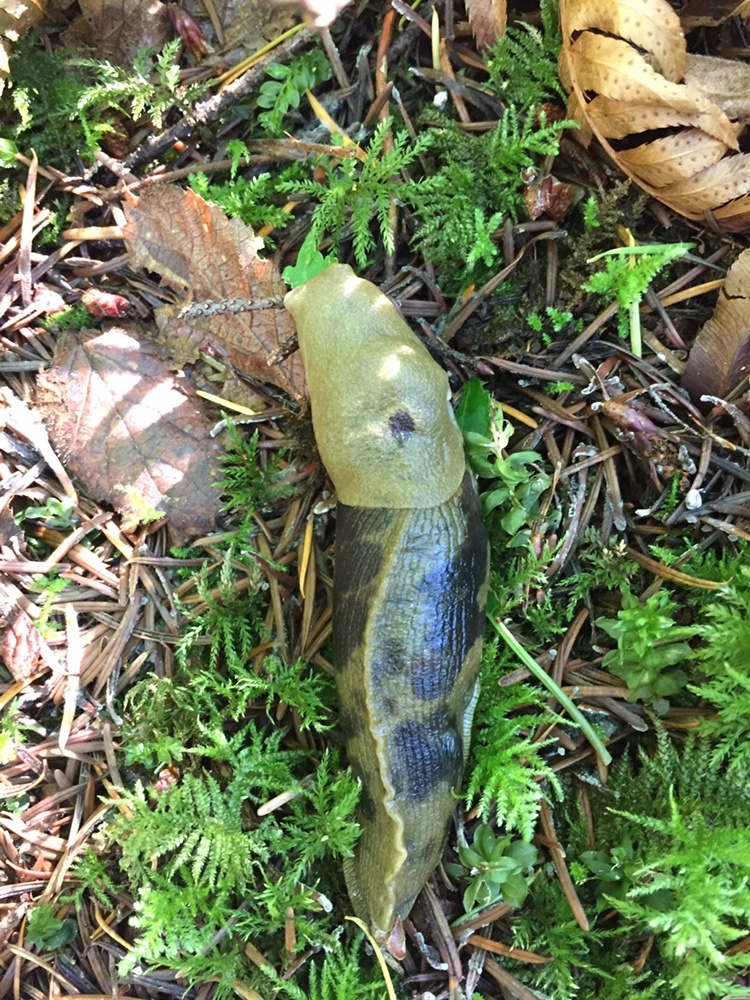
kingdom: Animalia
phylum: Mollusca
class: Gastropoda
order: Stylommatophora
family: Ariolimacidae
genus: Ariolimax
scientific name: Ariolimax columbianus
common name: Pacific banana slug
